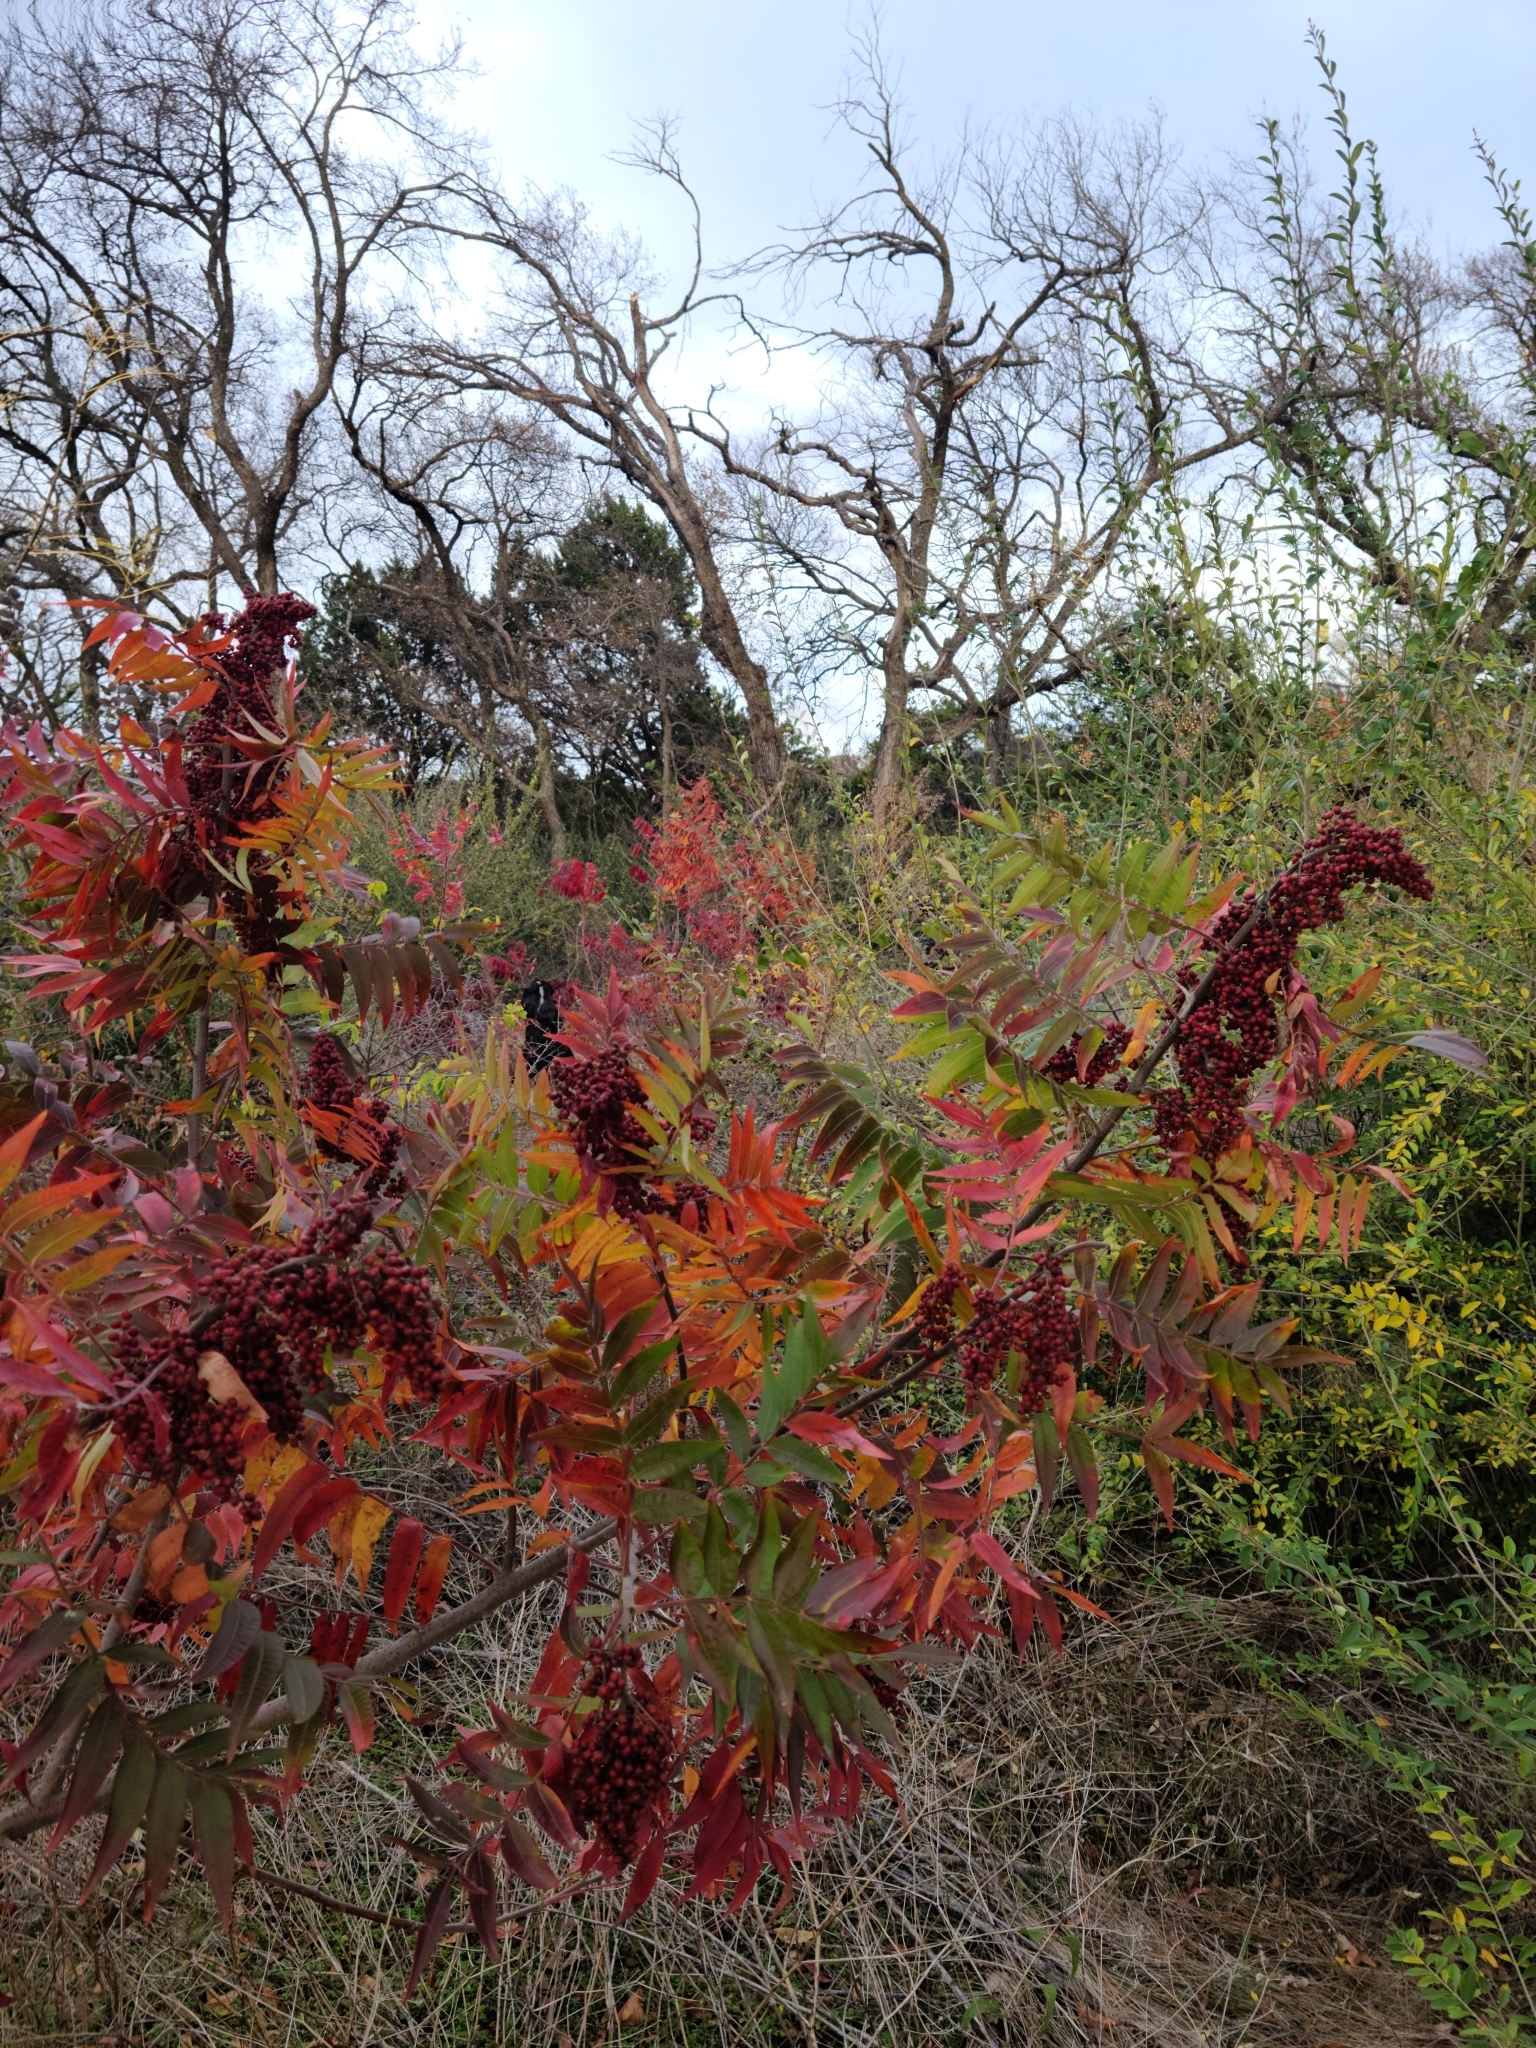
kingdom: Plantae
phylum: Tracheophyta
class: Magnoliopsida
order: Sapindales
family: Anacardiaceae
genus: Rhus
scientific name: Rhus lanceolata
